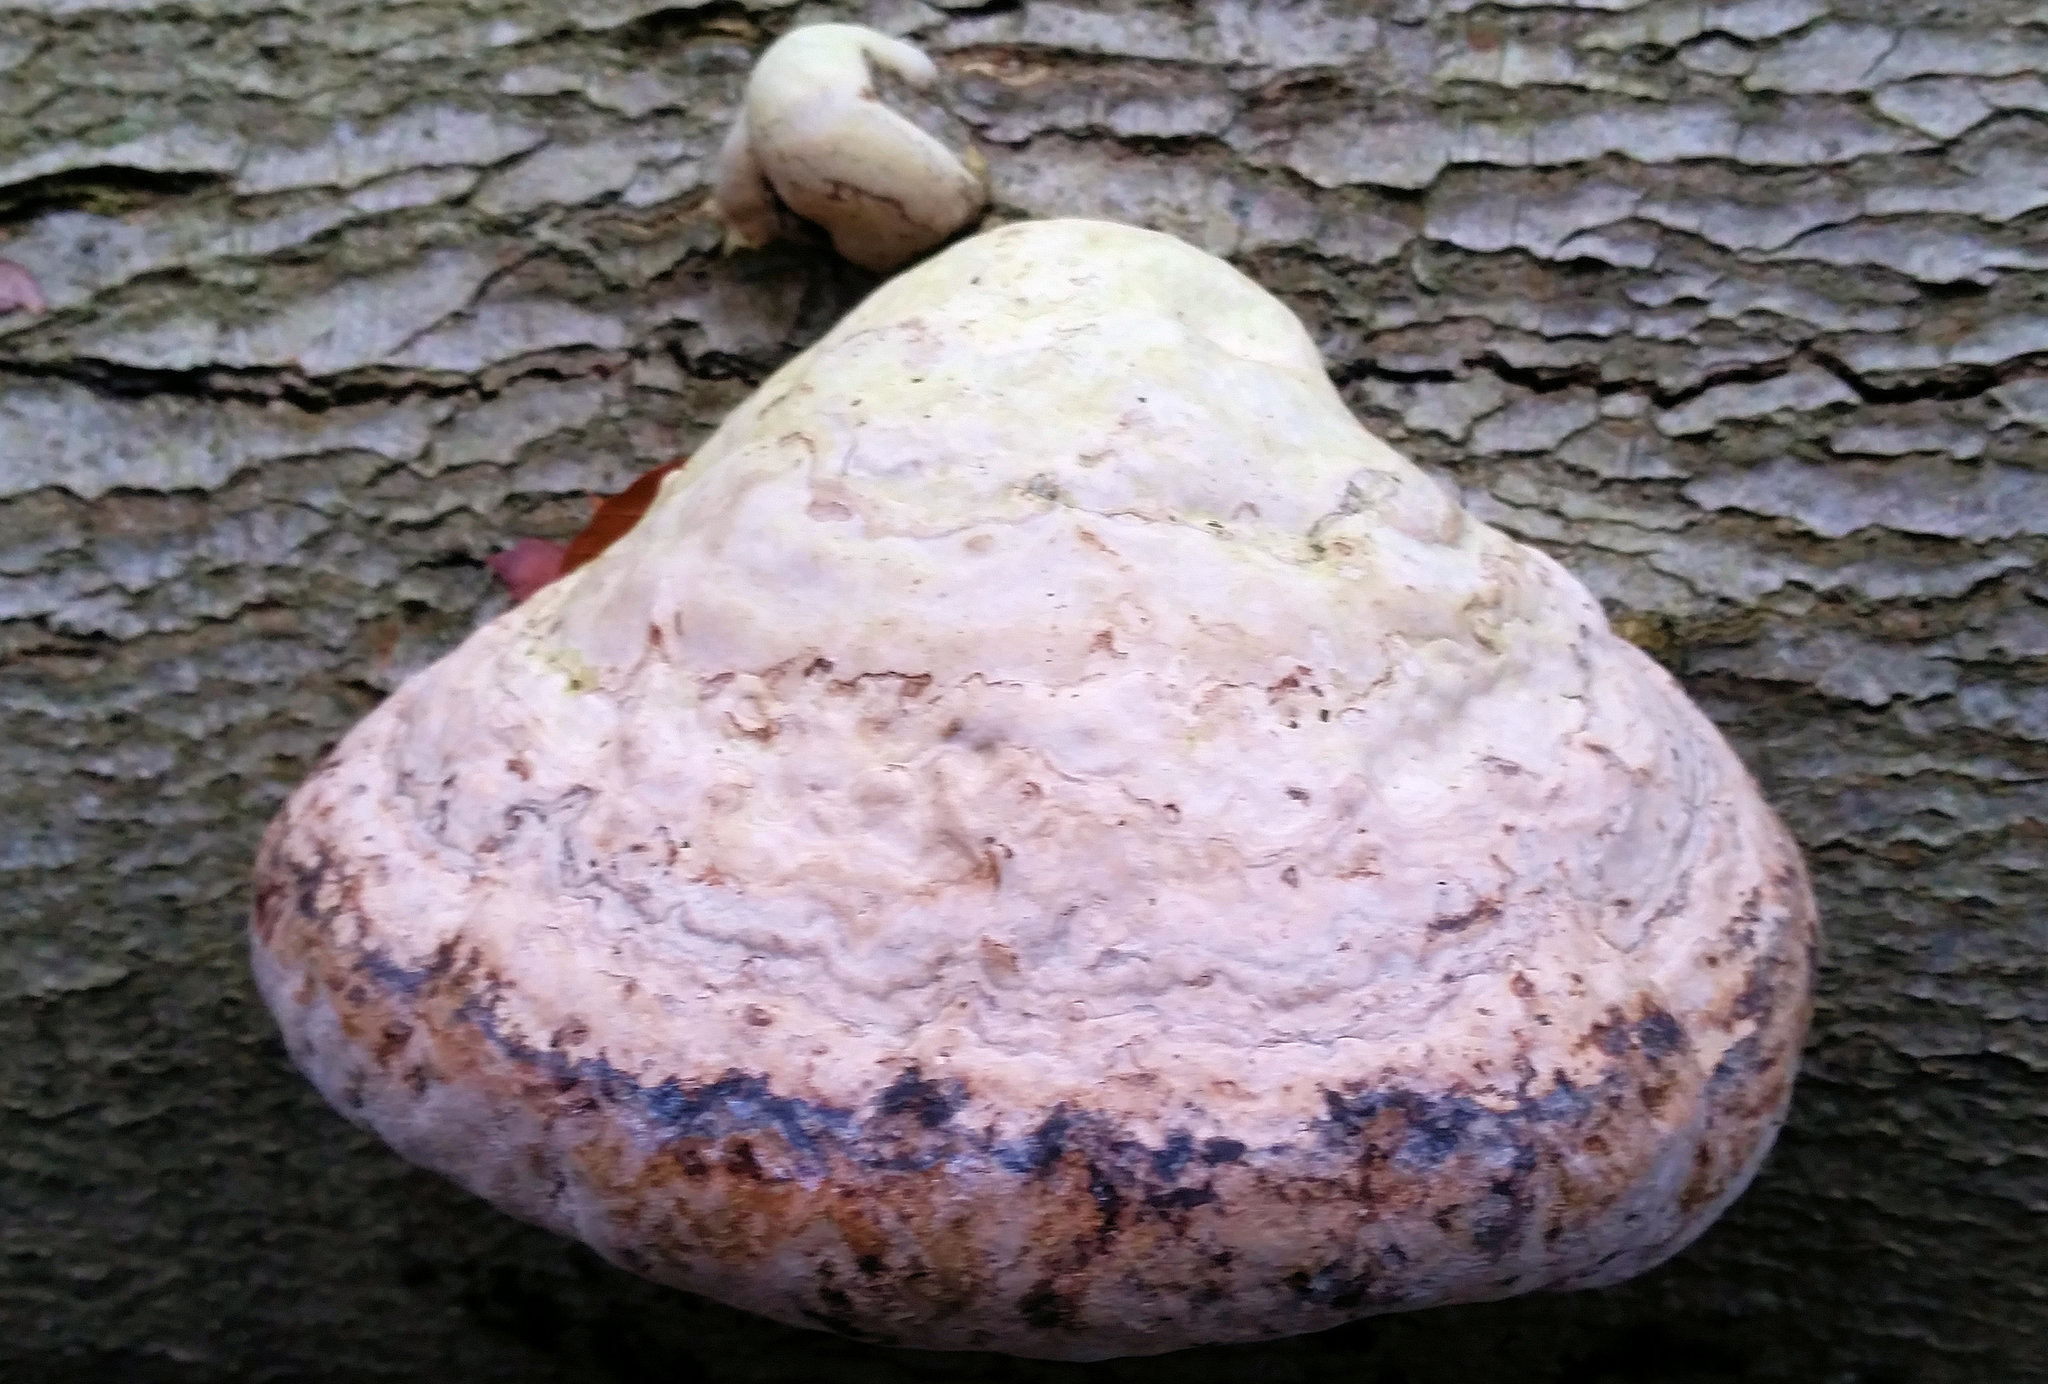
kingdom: Fungi
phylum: Basidiomycota
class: Agaricomycetes
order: Polyporales
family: Polyporaceae
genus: Fomes
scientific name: Fomes fomentarius
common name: Hoof fungus
